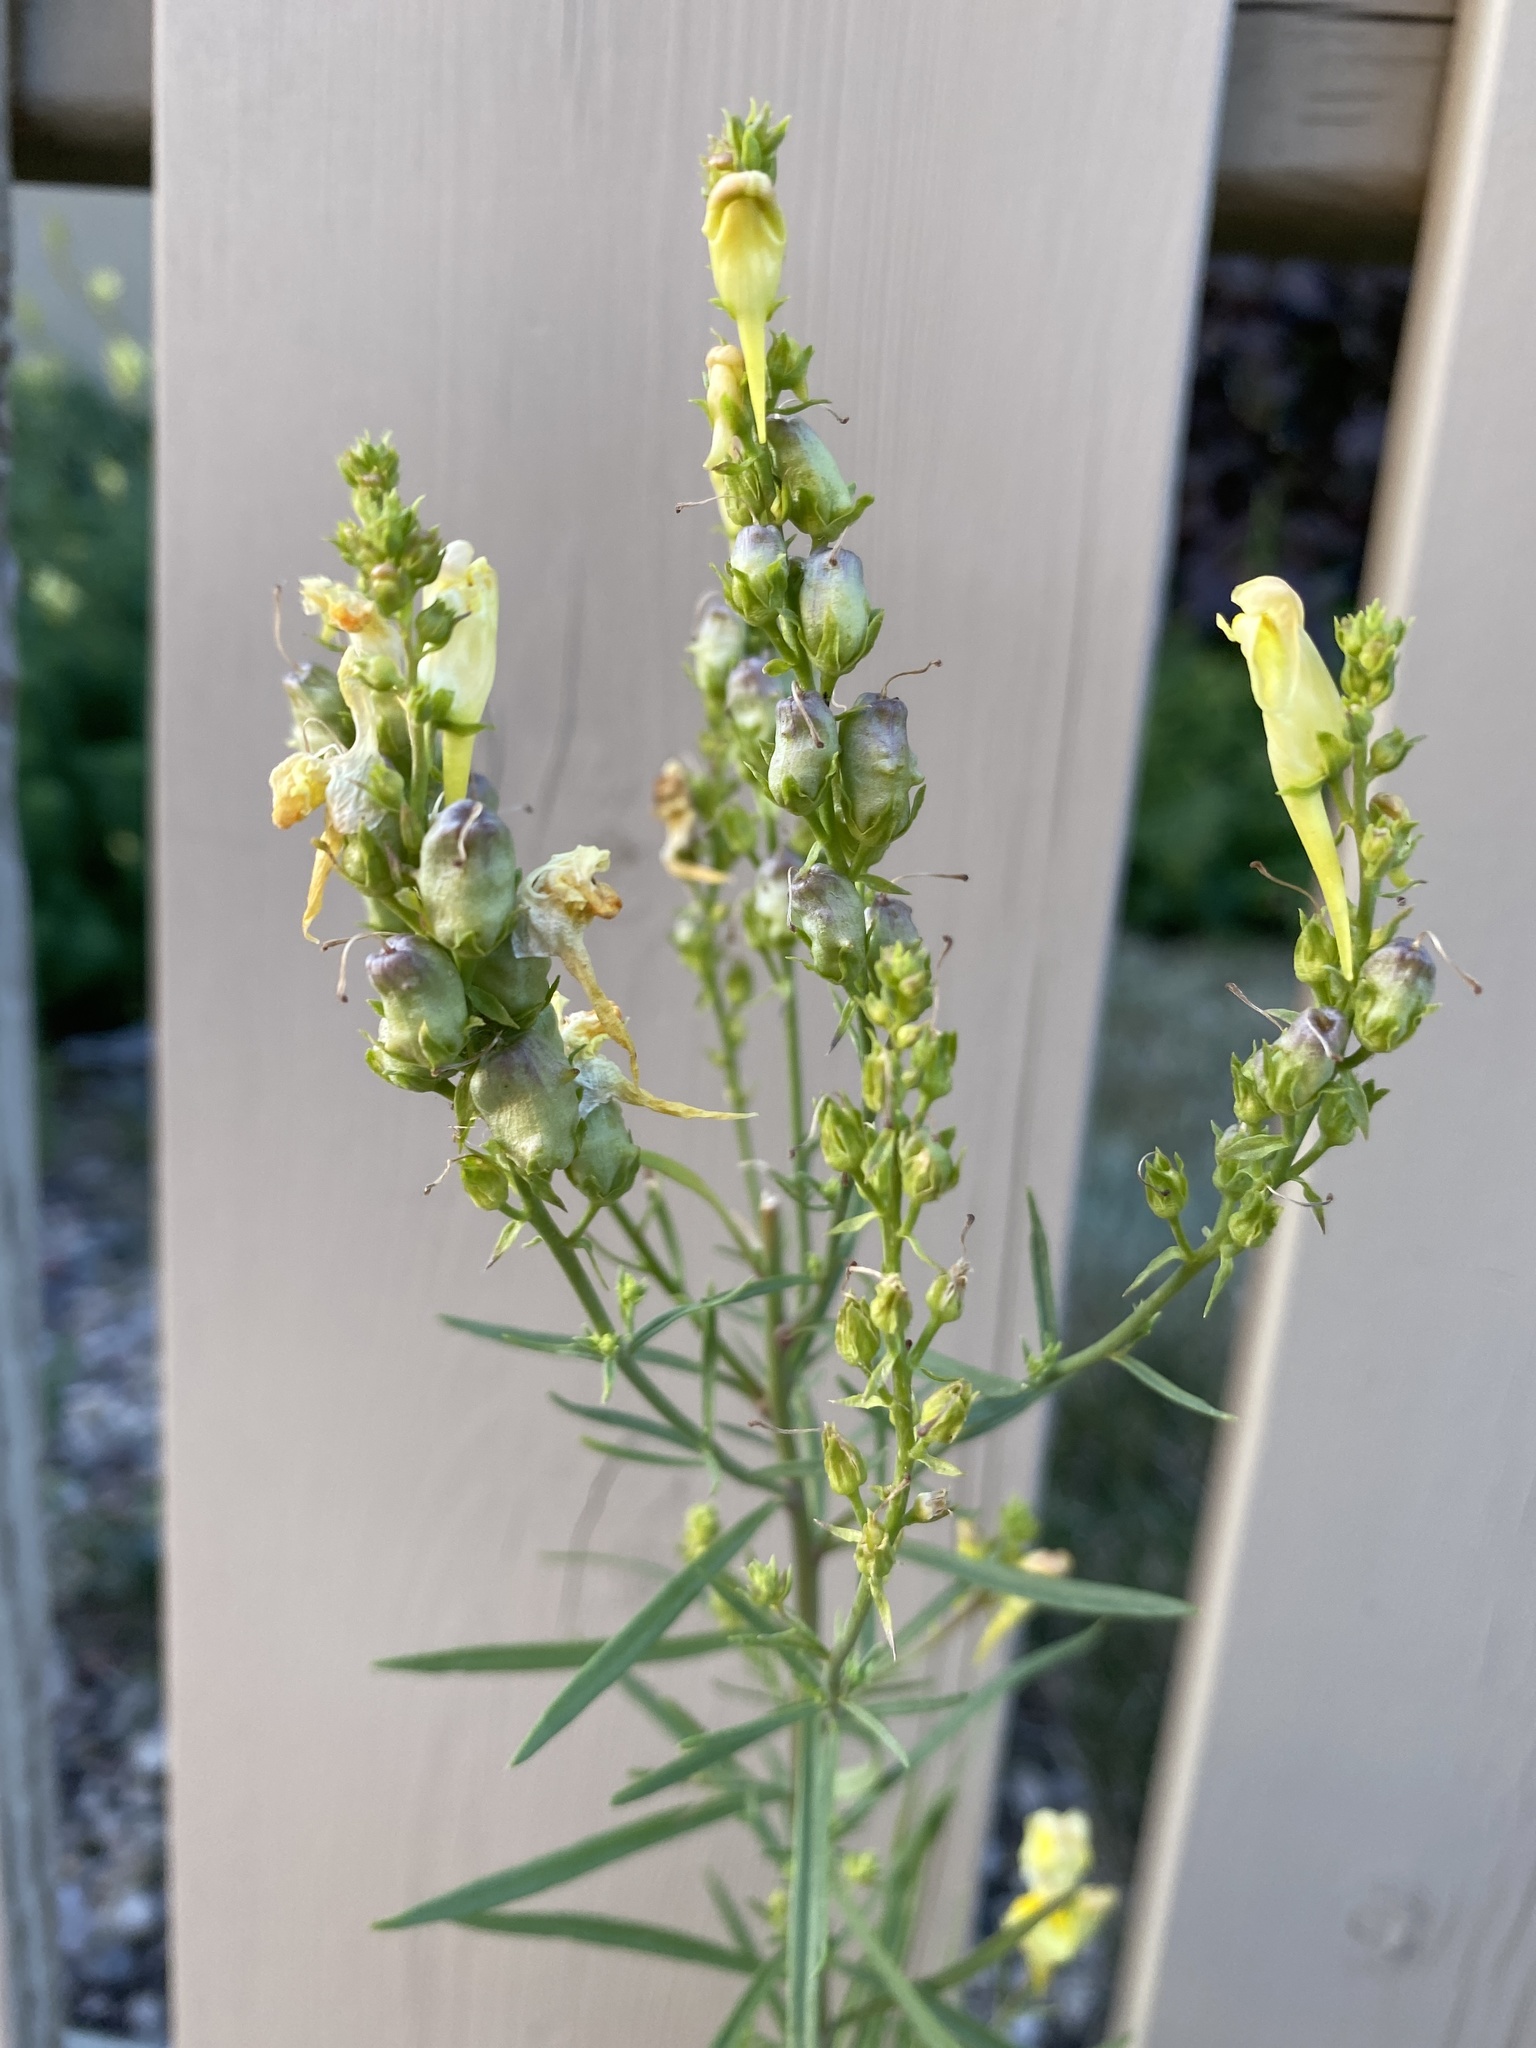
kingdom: Plantae
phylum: Tracheophyta
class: Magnoliopsida
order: Lamiales
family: Plantaginaceae
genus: Linaria
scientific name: Linaria vulgaris
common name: Butter and eggs
